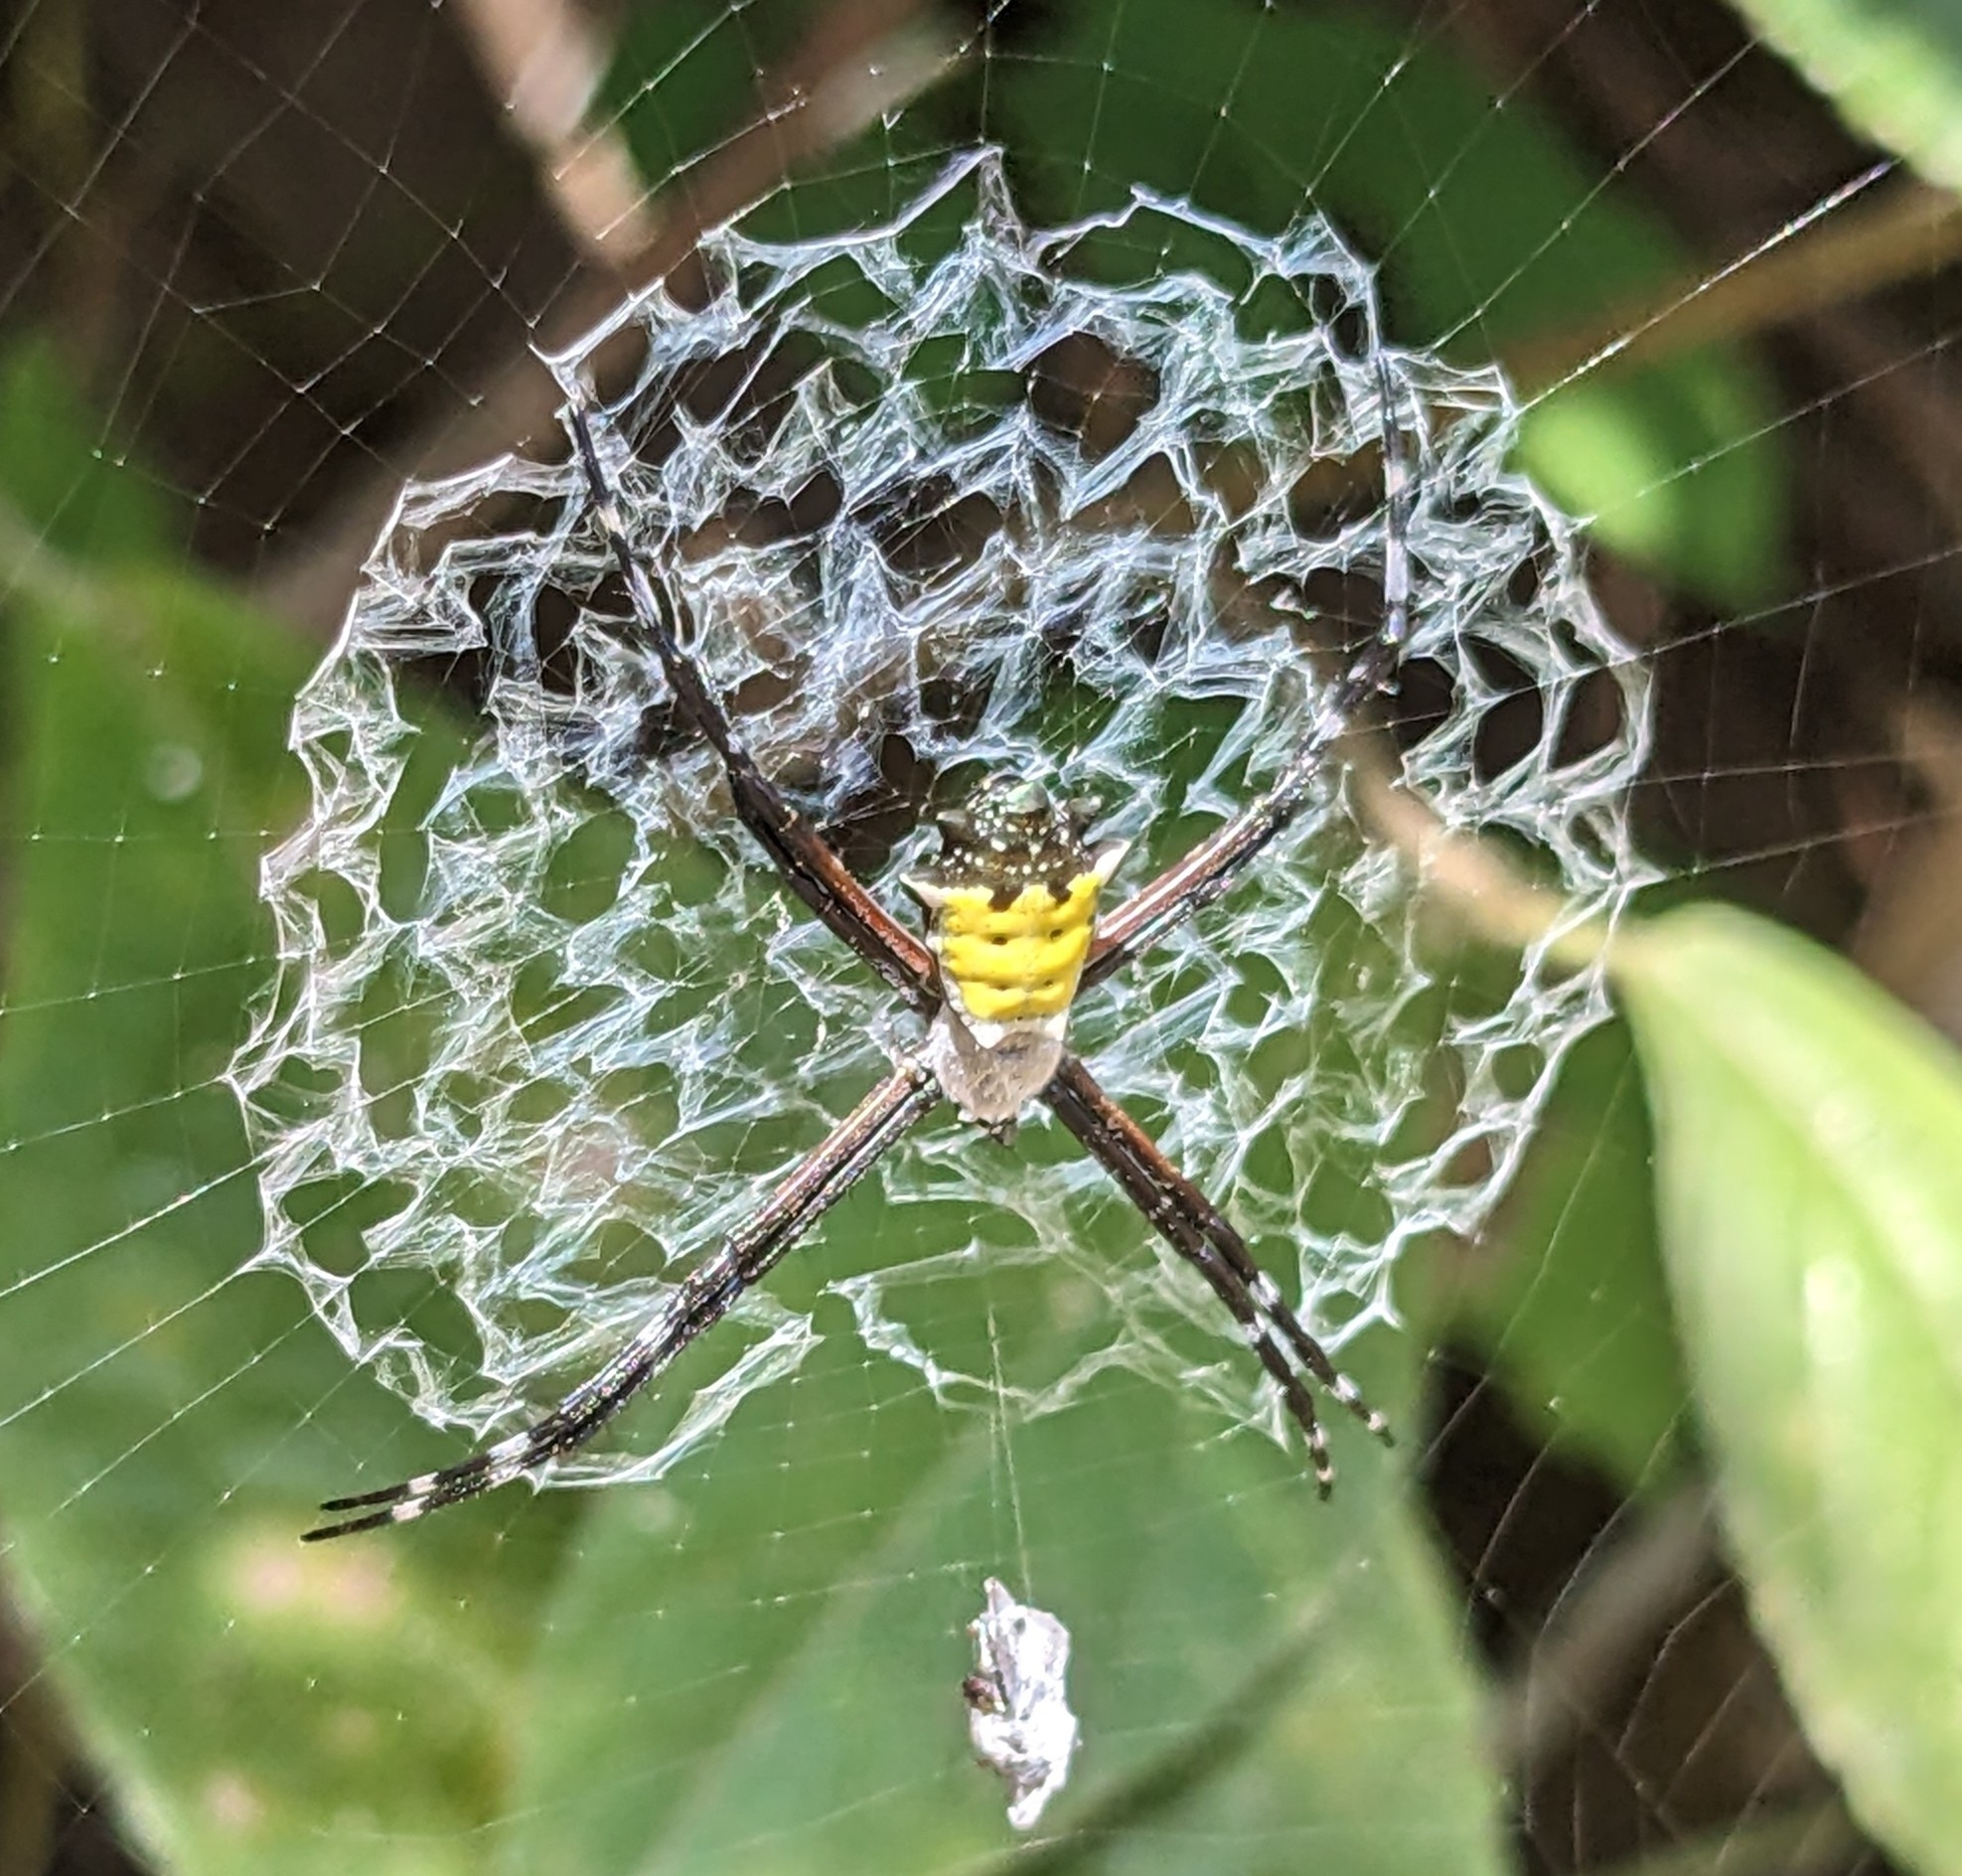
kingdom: Animalia
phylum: Arthropoda
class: Arachnida
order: Araneae
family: Araneidae
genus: Argiope
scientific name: Argiope submaronica
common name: Orb weavers
